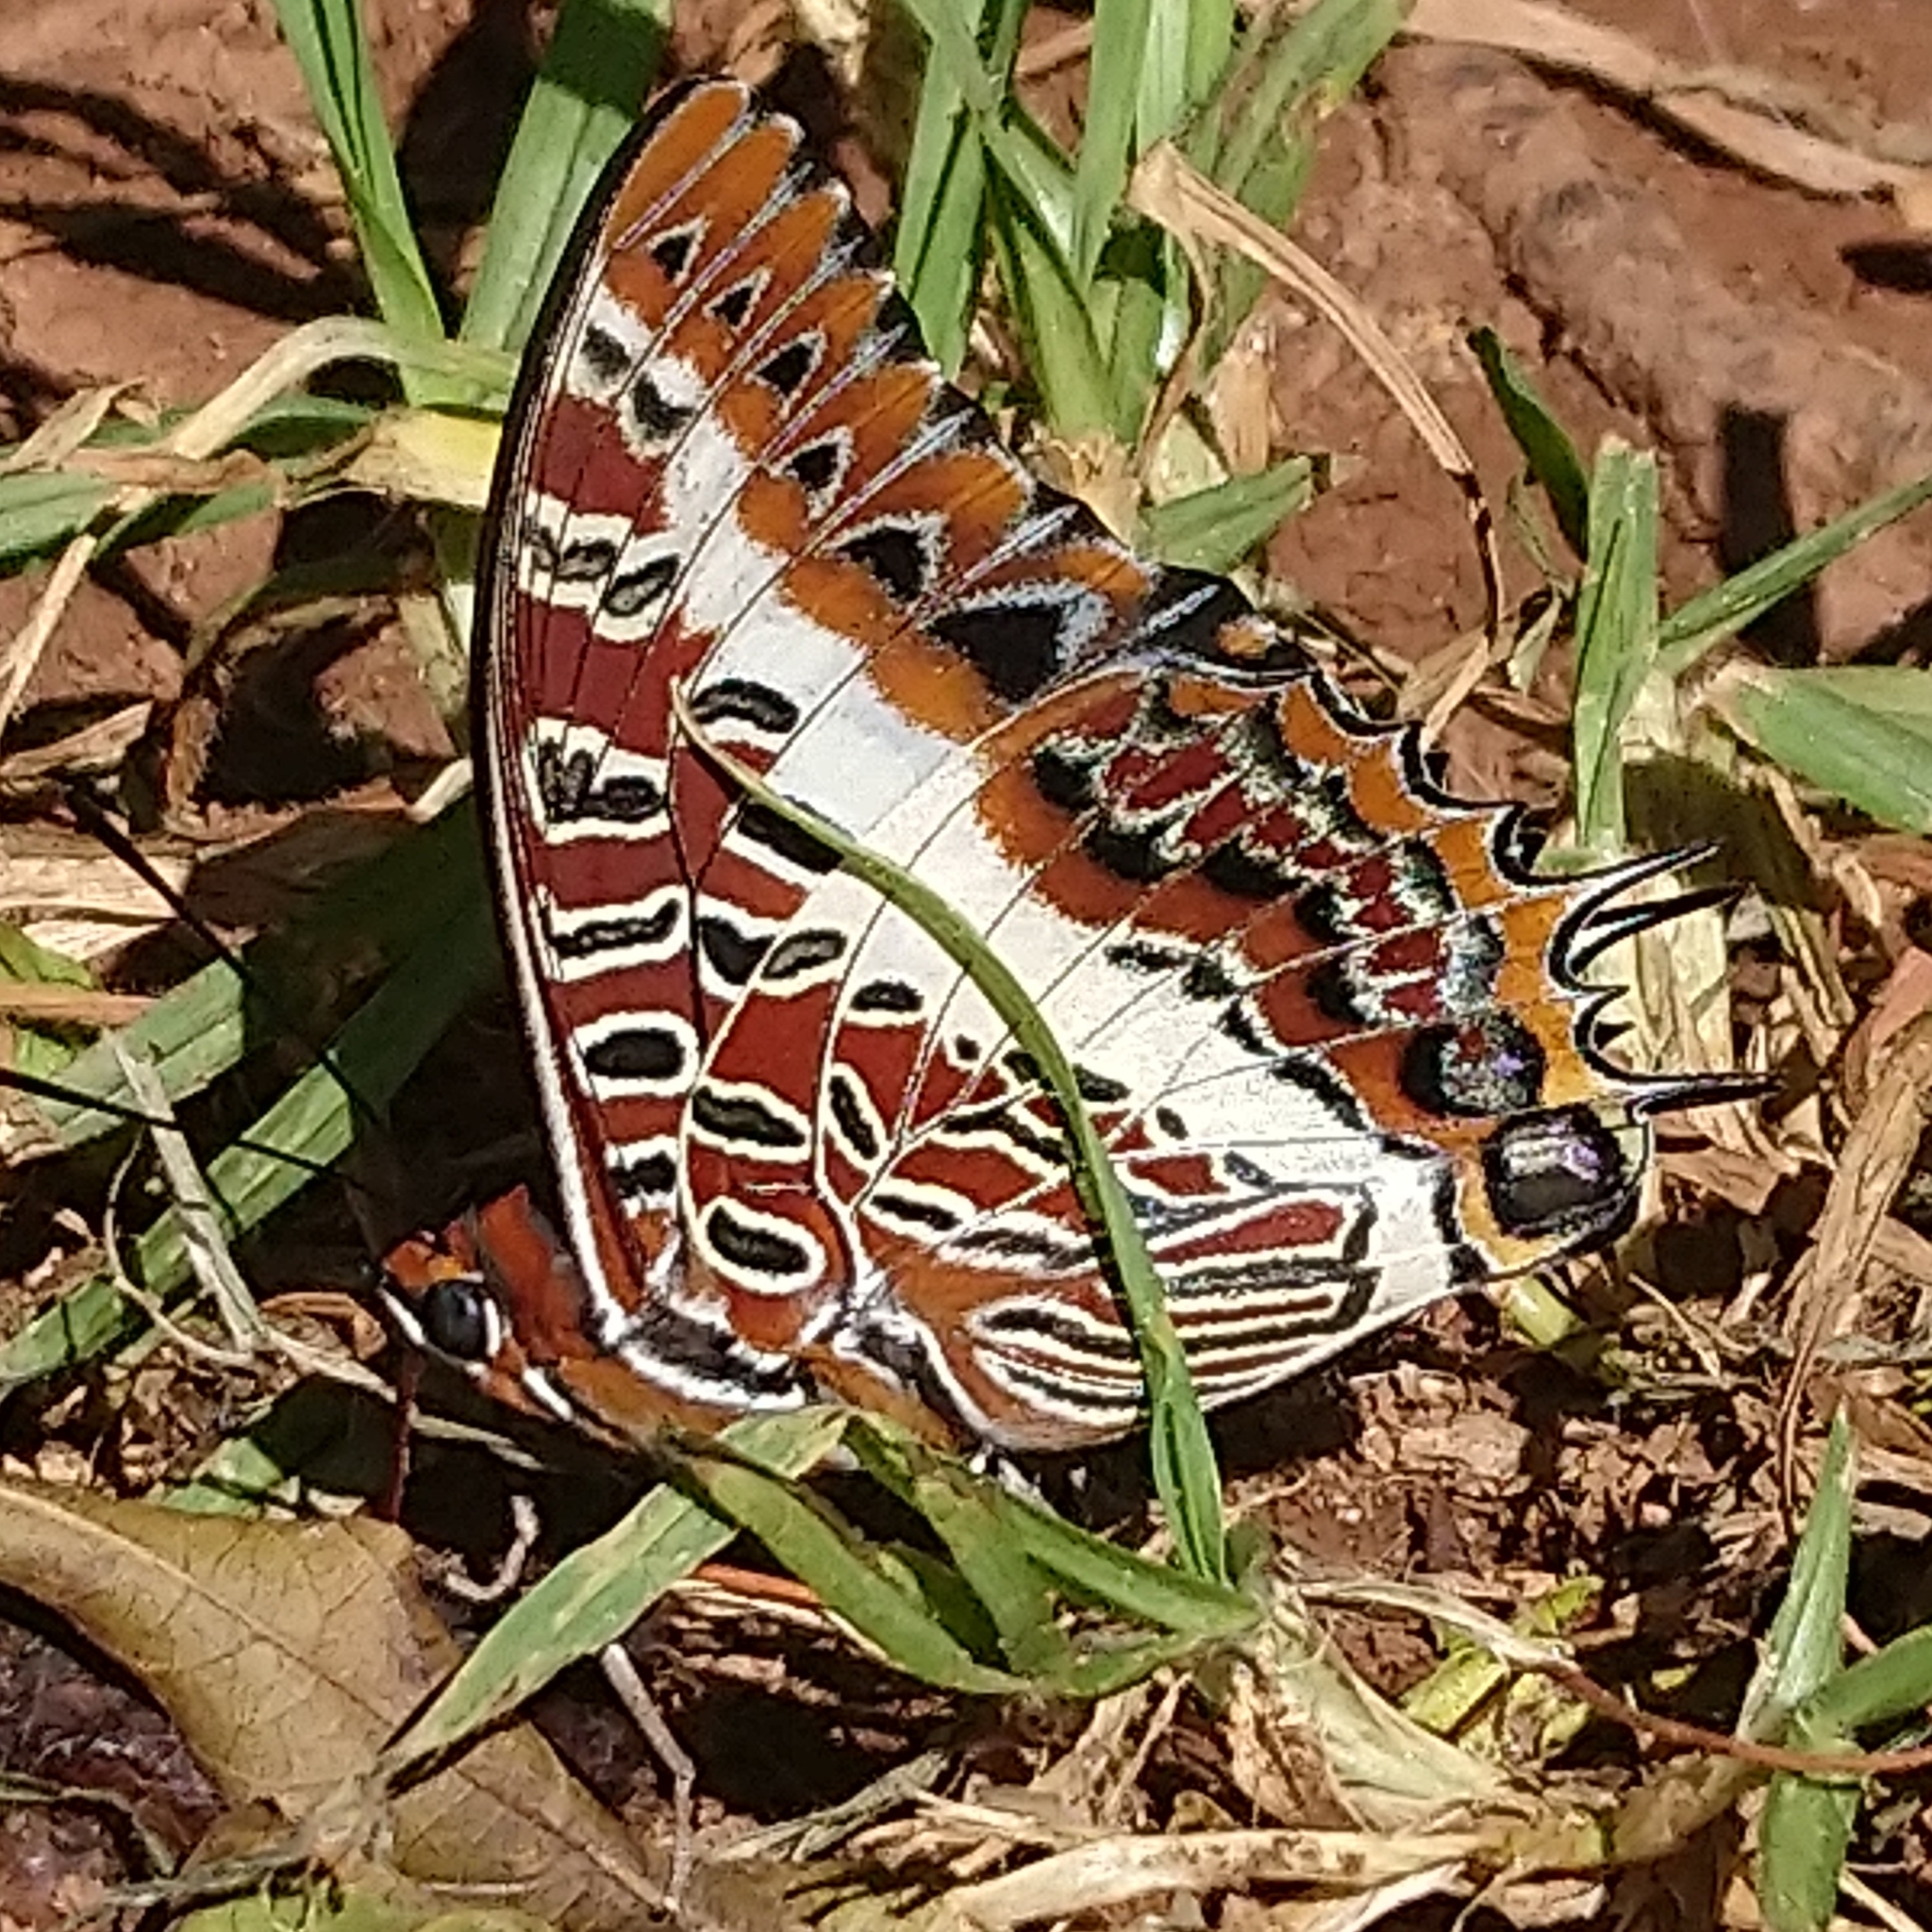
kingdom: Animalia
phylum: Arthropoda
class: Insecta
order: Lepidoptera
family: Nymphalidae
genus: Charaxes
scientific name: Charaxes brutus
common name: White-barred charaxes
